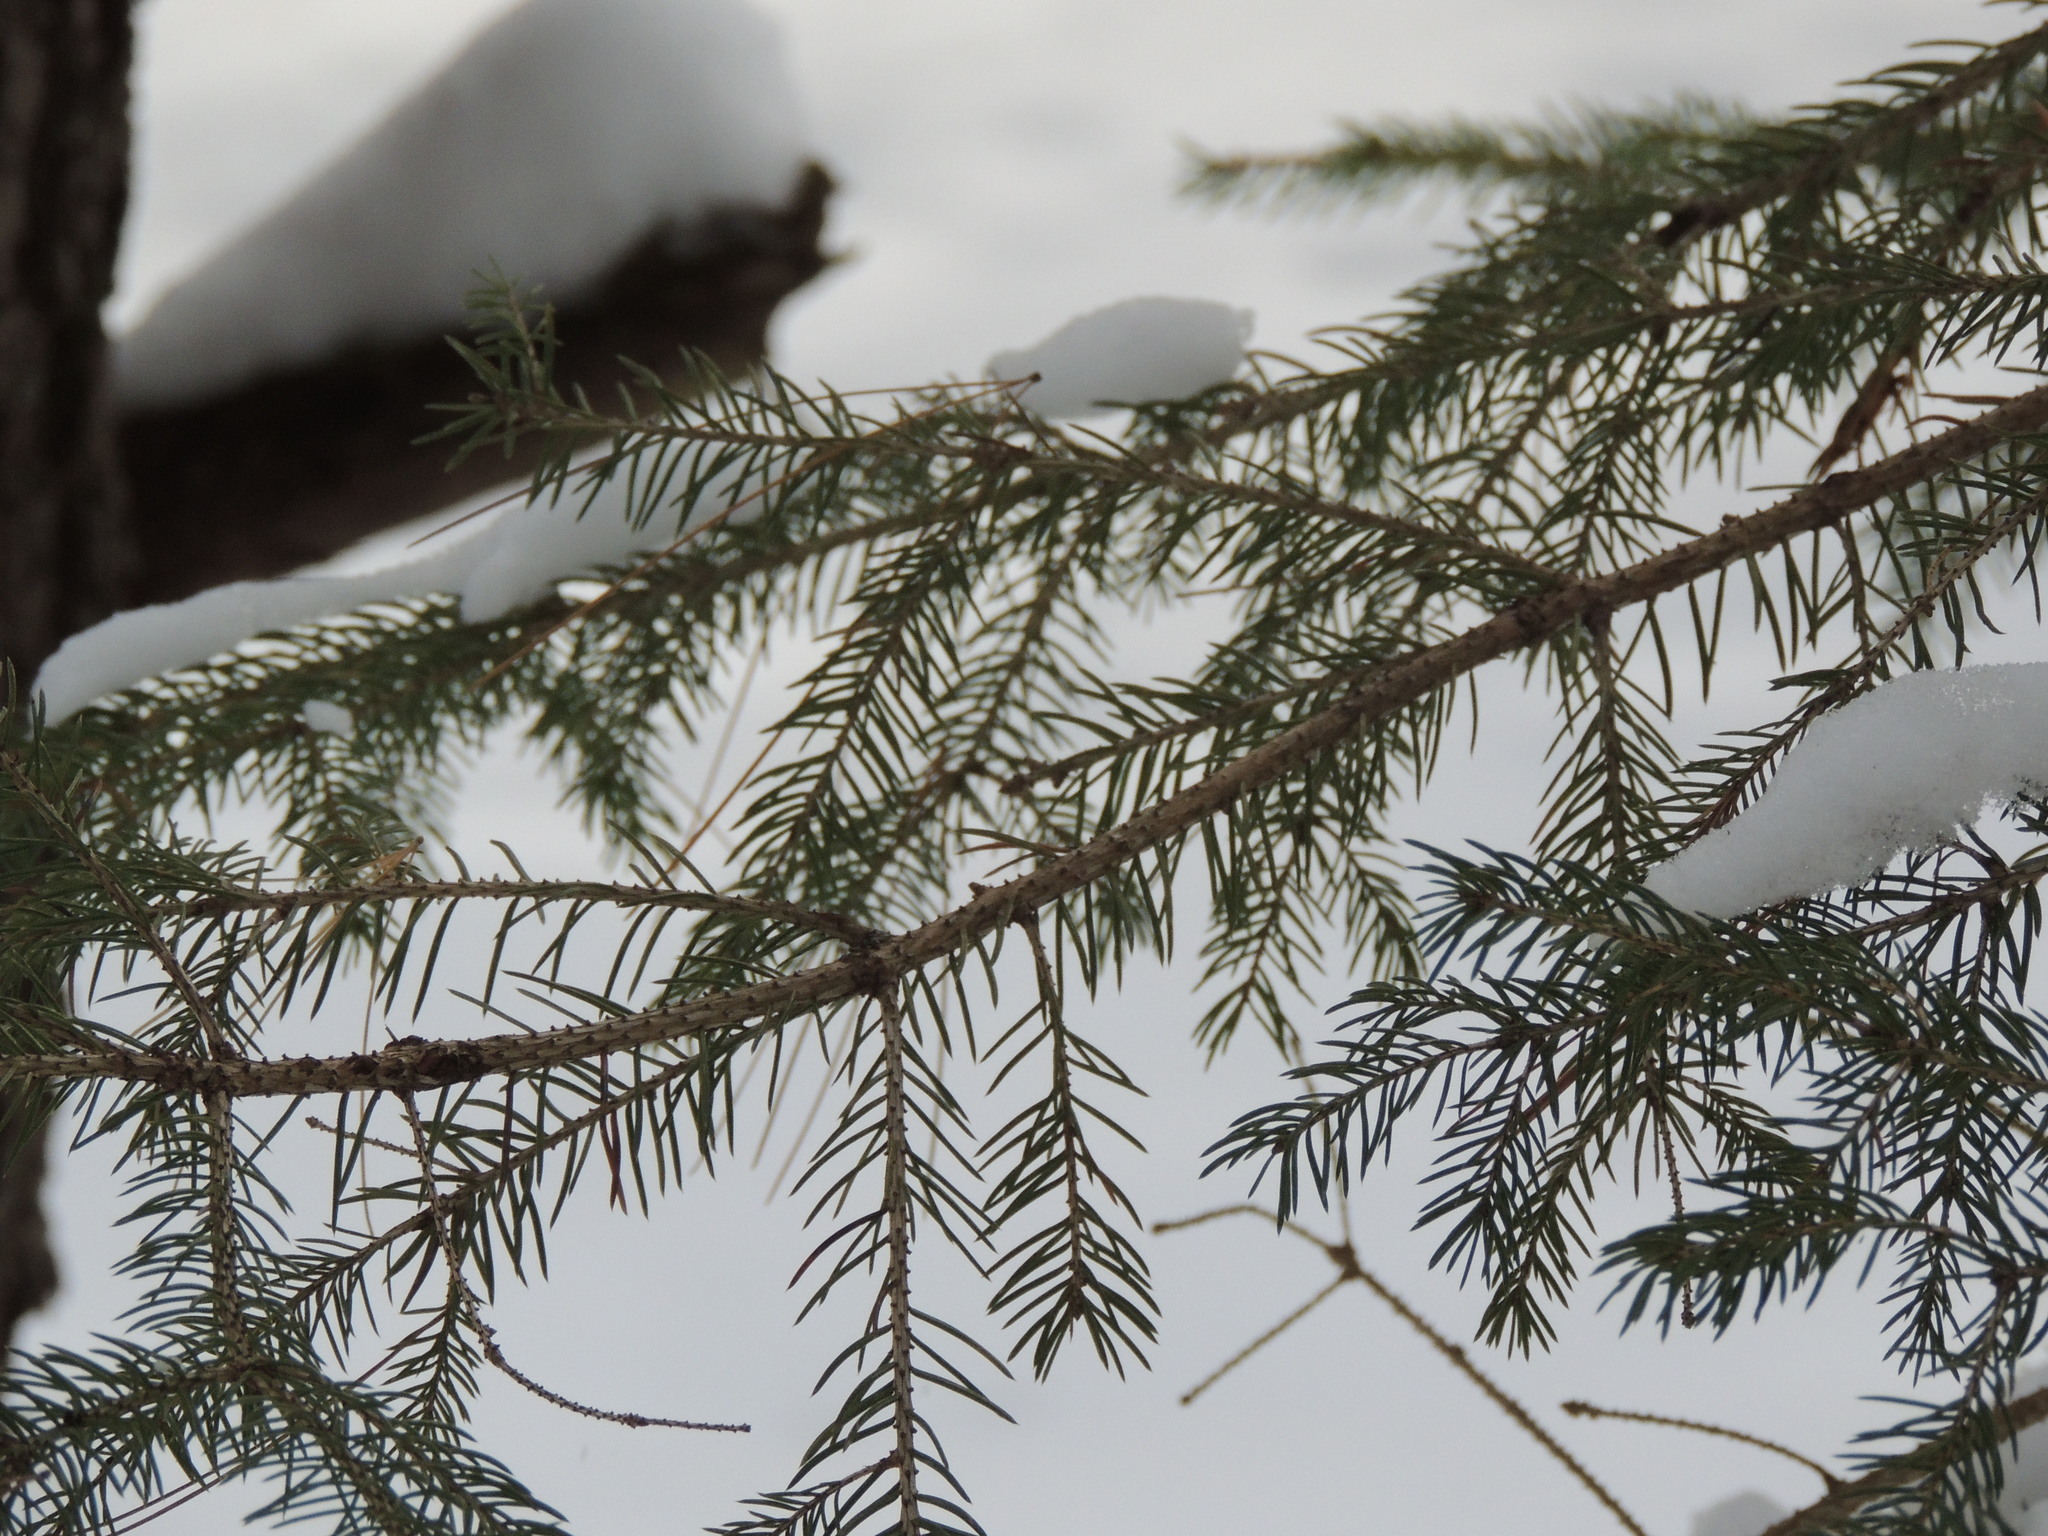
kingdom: Plantae
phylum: Tracheophyta
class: Pinopsida
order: Pinales
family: Pinaceae
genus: Picea
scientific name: Picea glauca
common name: White spruce
